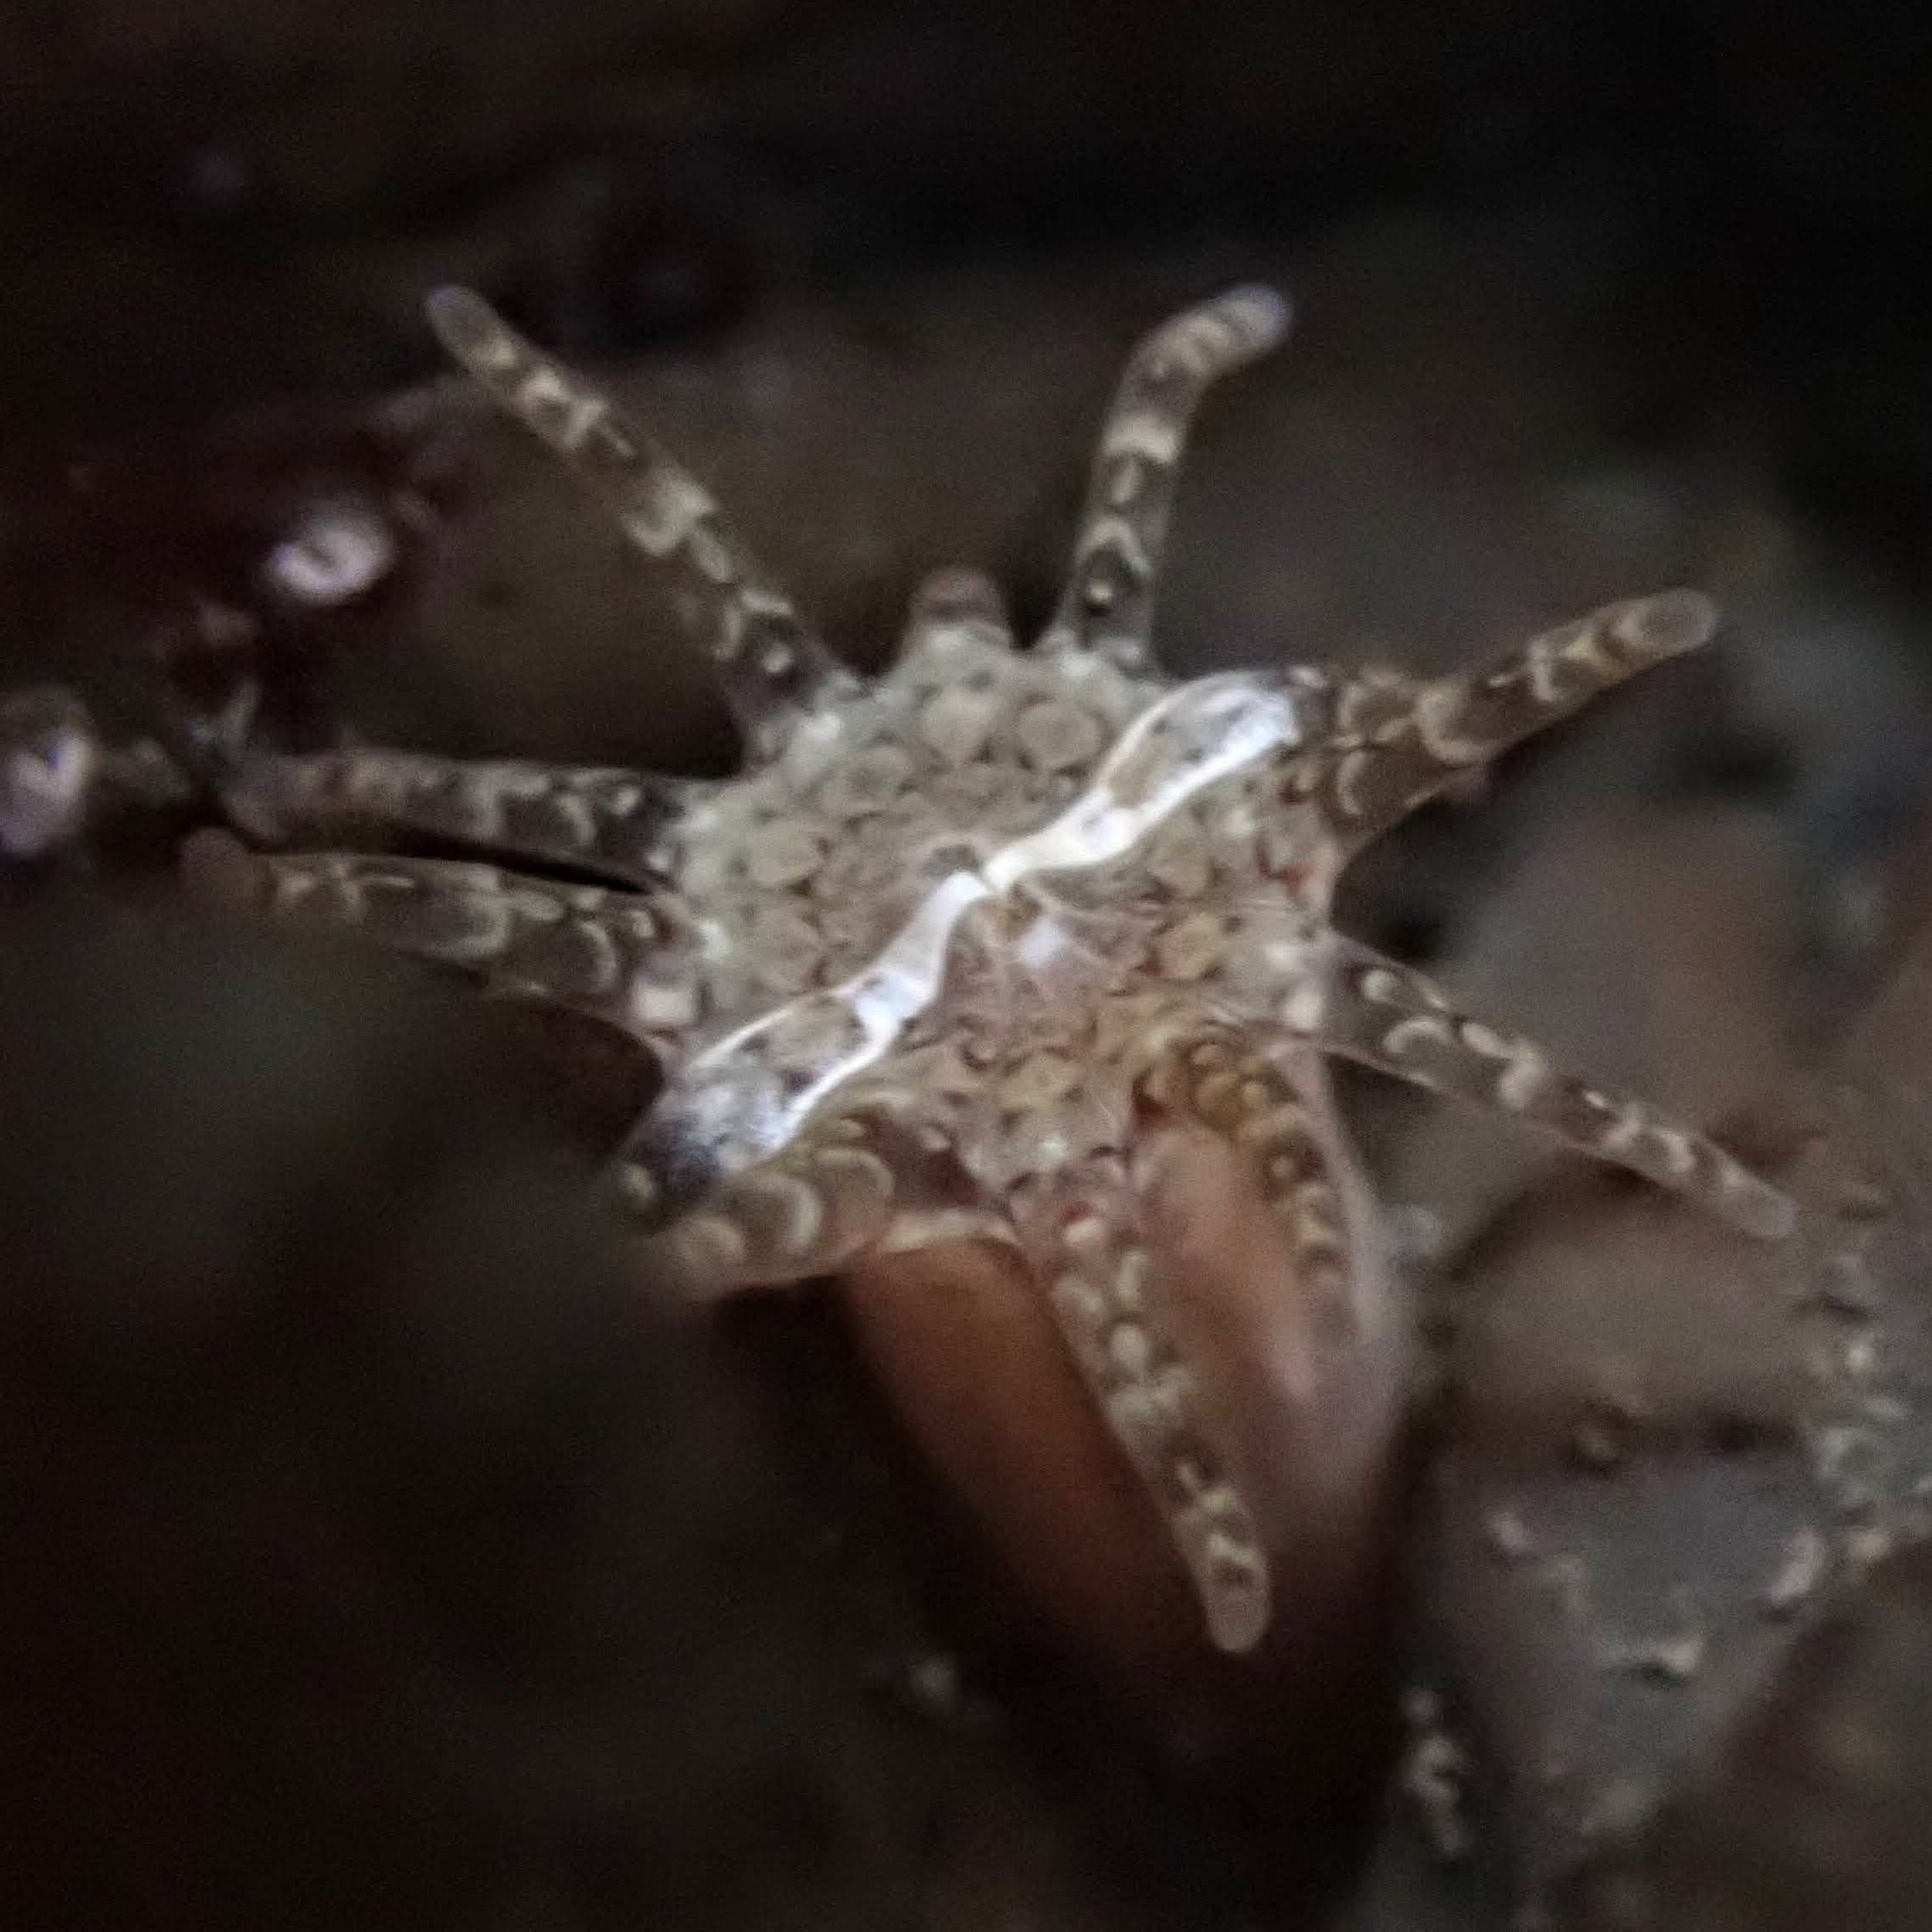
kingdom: Animalia
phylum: Cnidaria
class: Anthozoa
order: Actiniaria
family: Halcampidae
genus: Halcampa
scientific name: Halcampa crypta
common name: Cryptic burrowing anemone
